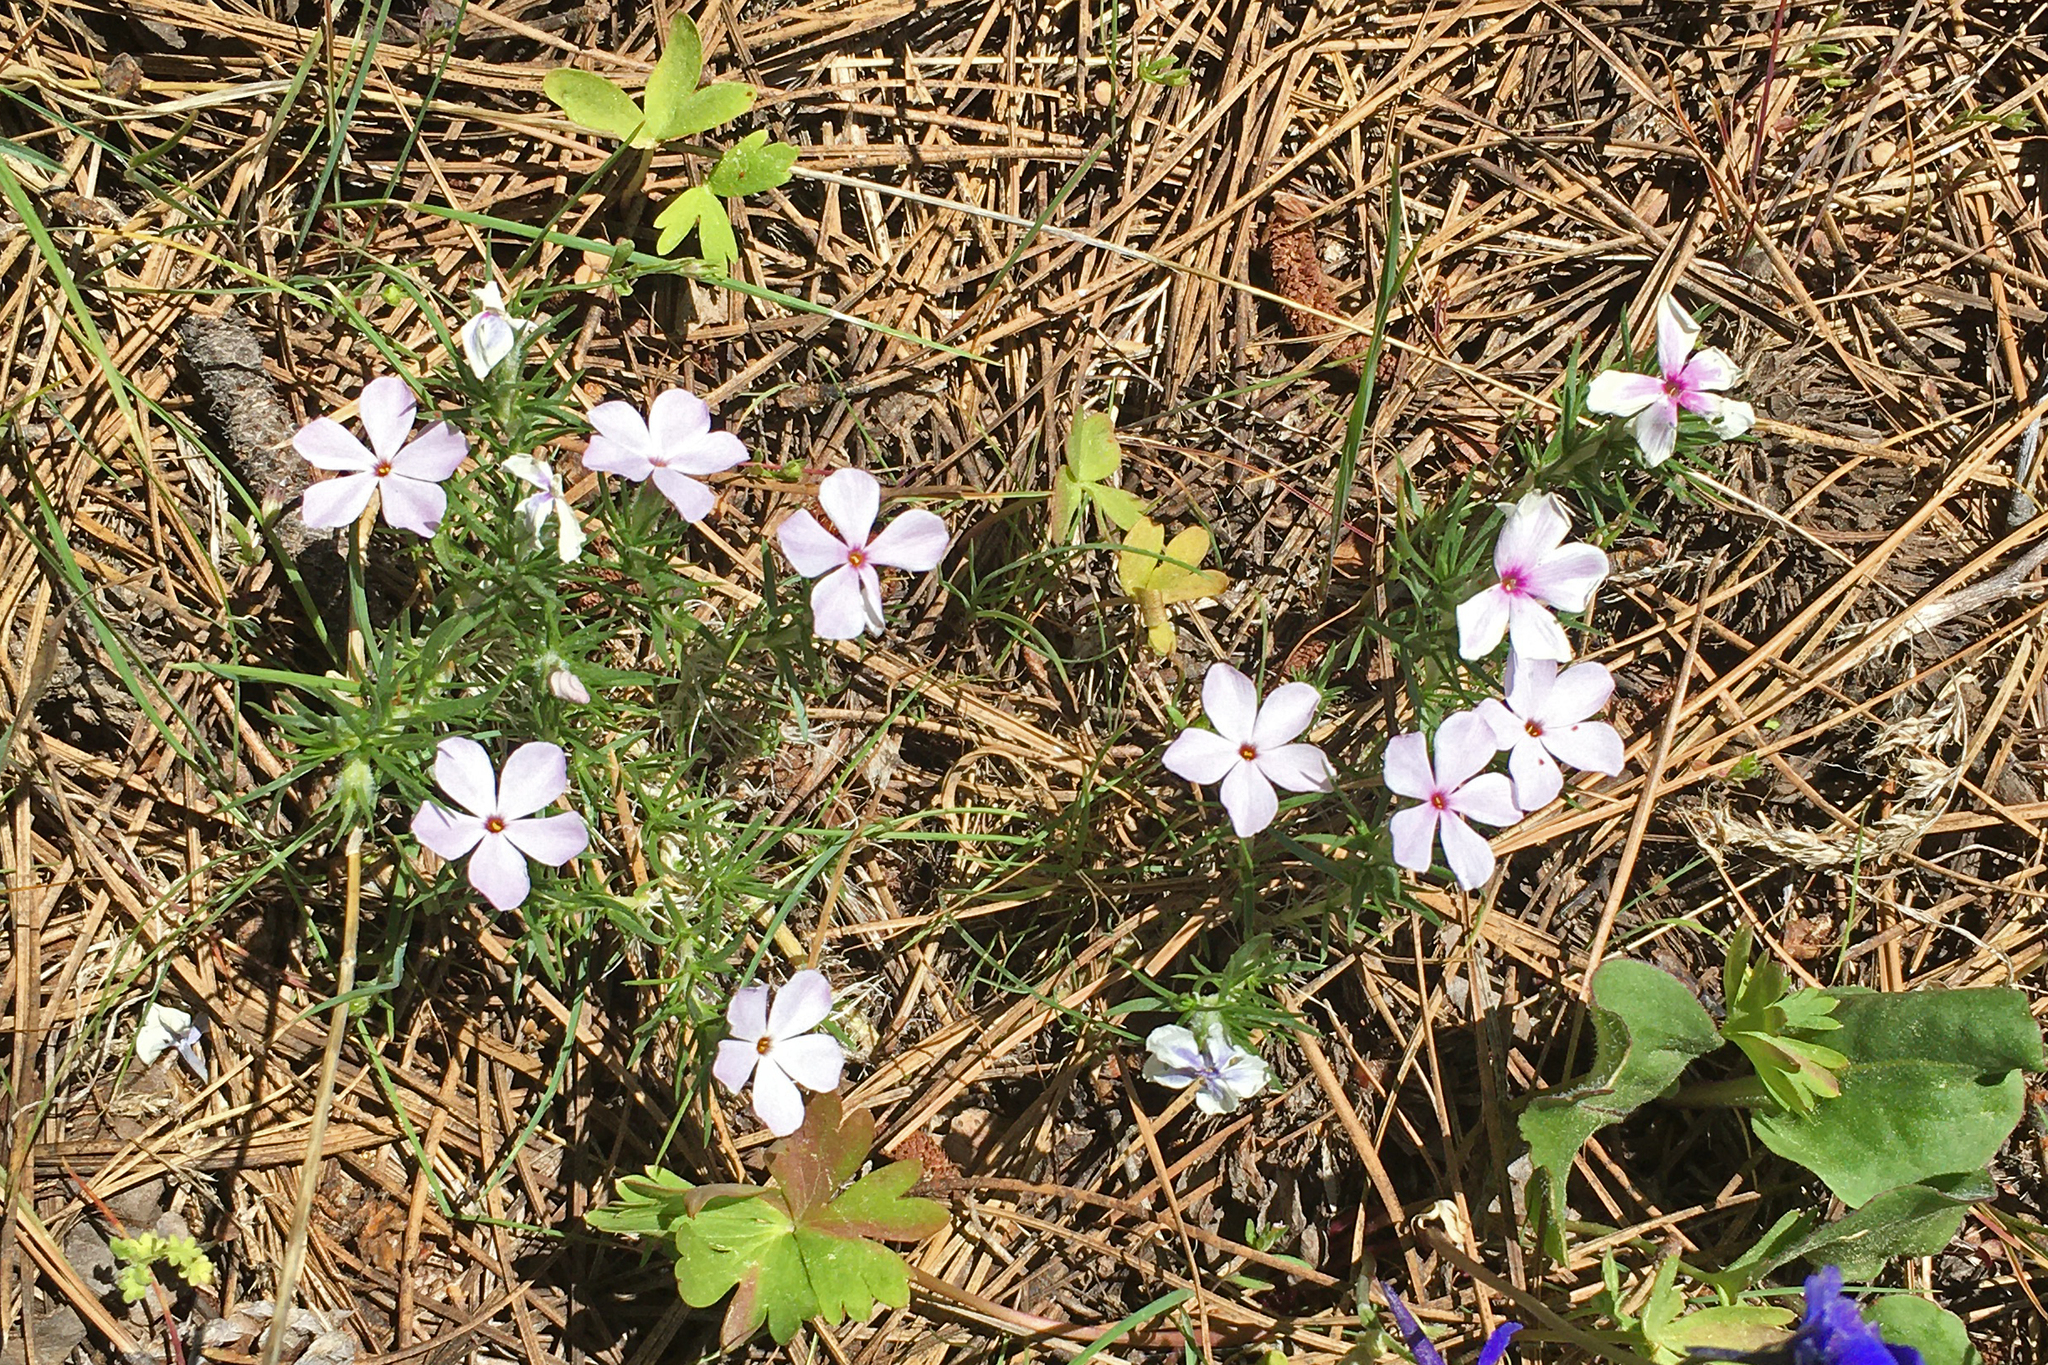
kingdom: Plantae
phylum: Tracheophyta
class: Magnoliopsida
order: Ericales
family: Polemoniaceae
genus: Phlox
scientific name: Phlox diffusa
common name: Mat phlox
